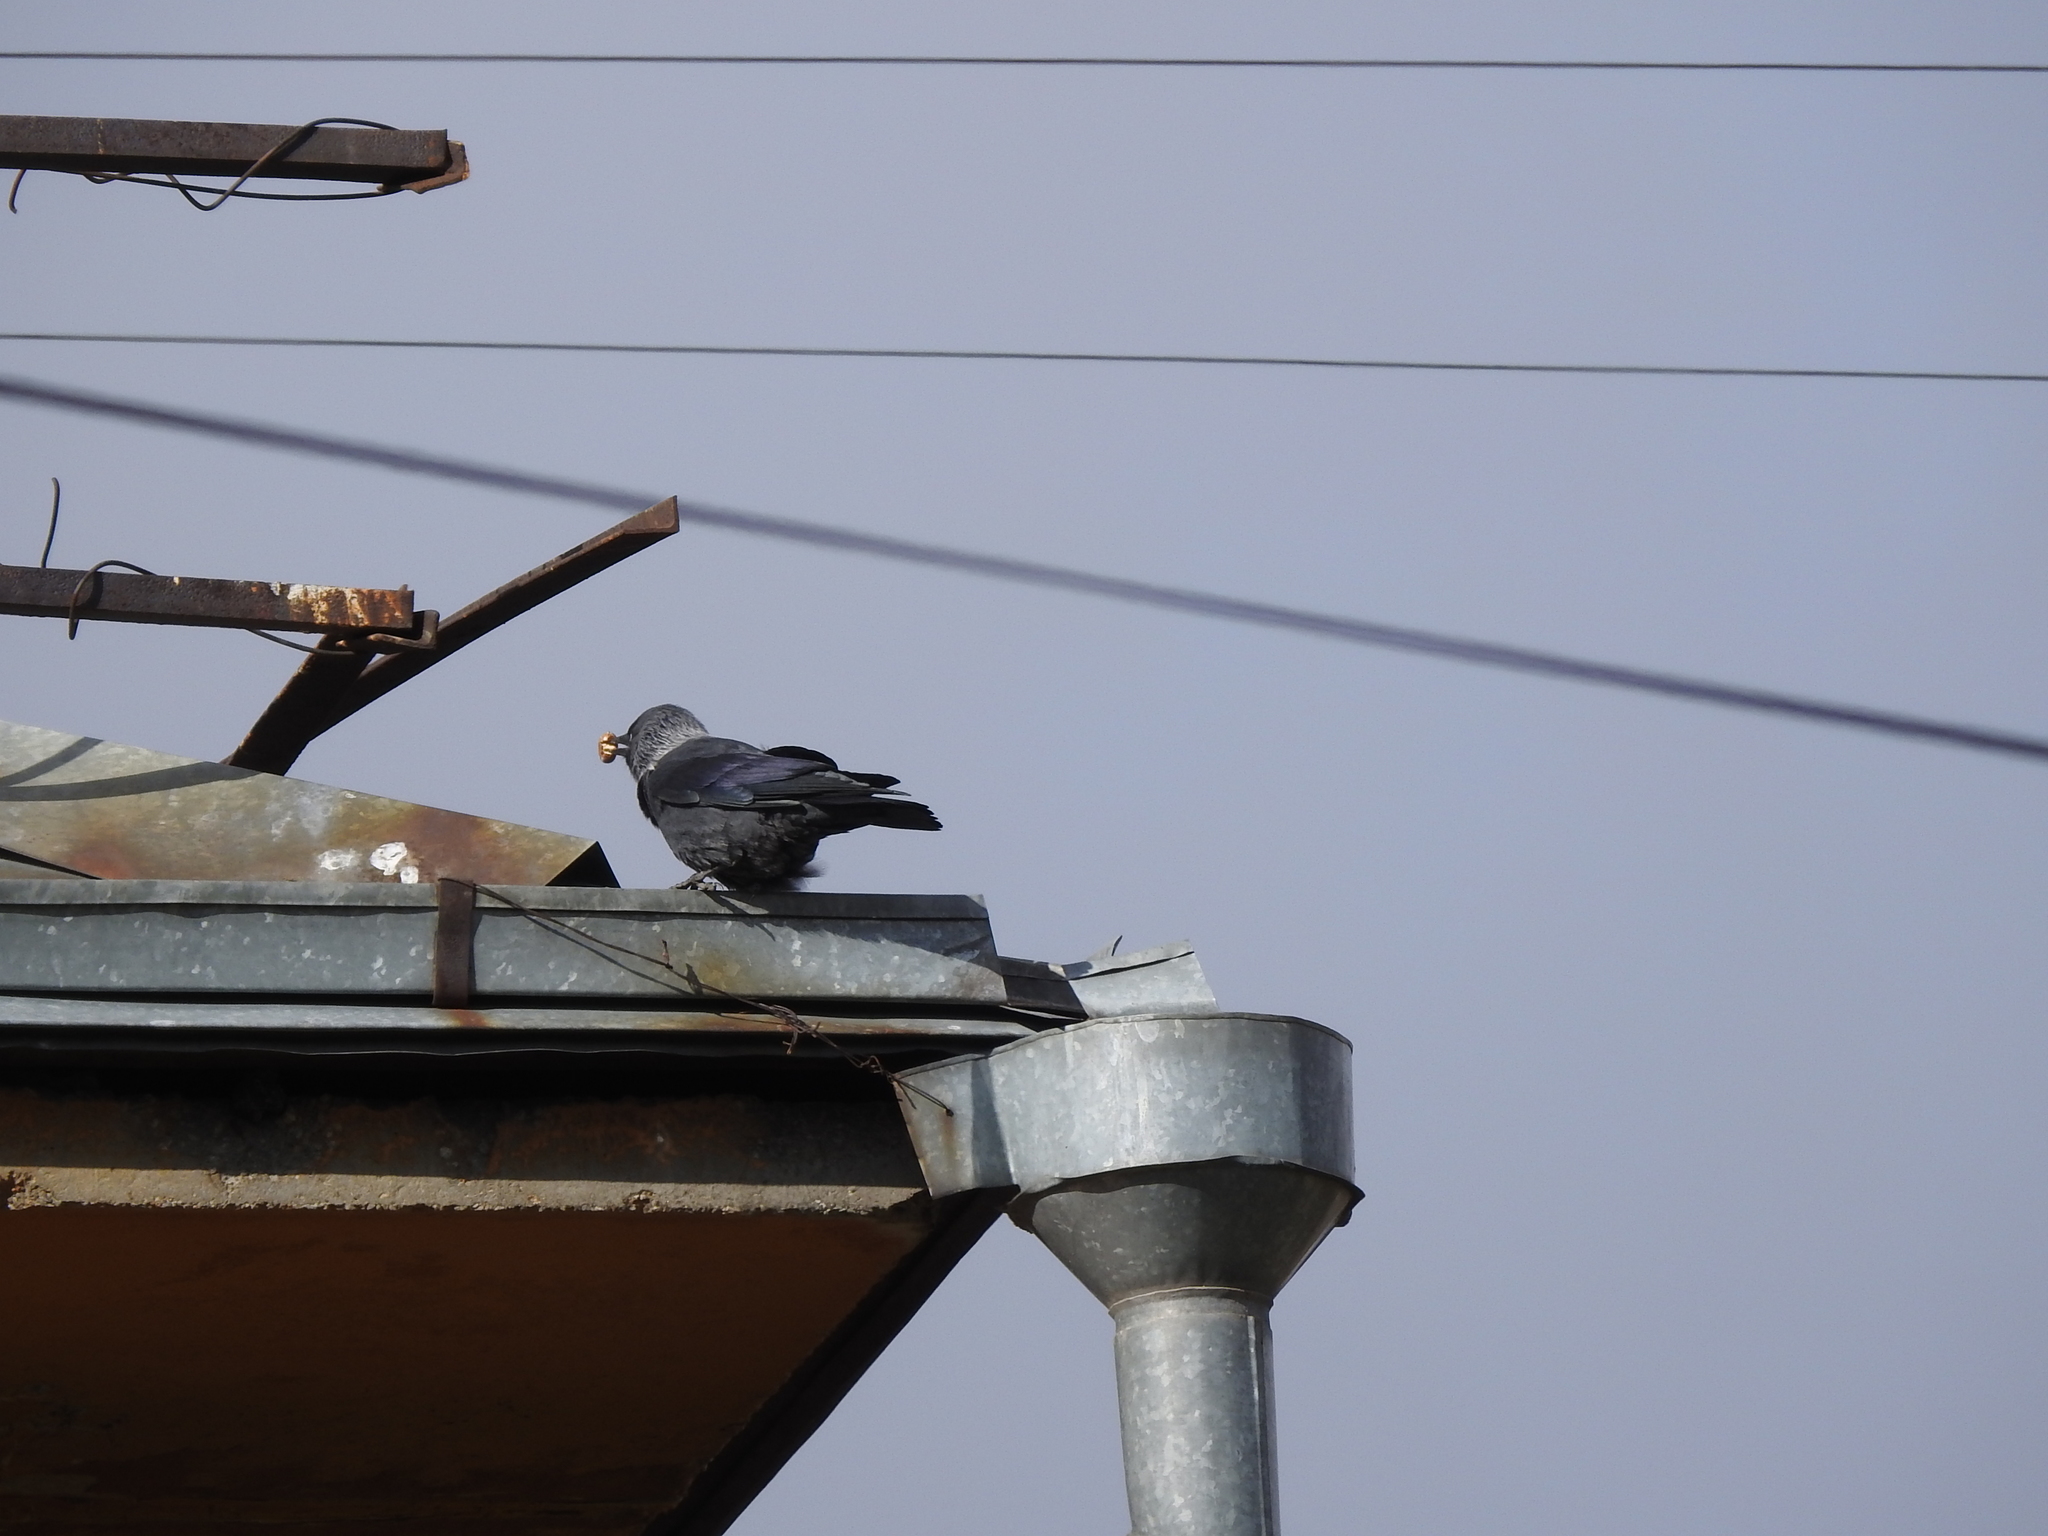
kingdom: Animalia
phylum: Chordata
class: Aves
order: Passeriformes
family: Corvidae
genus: Coloeus
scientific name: Coloeus monedula
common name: Western jackdaw
